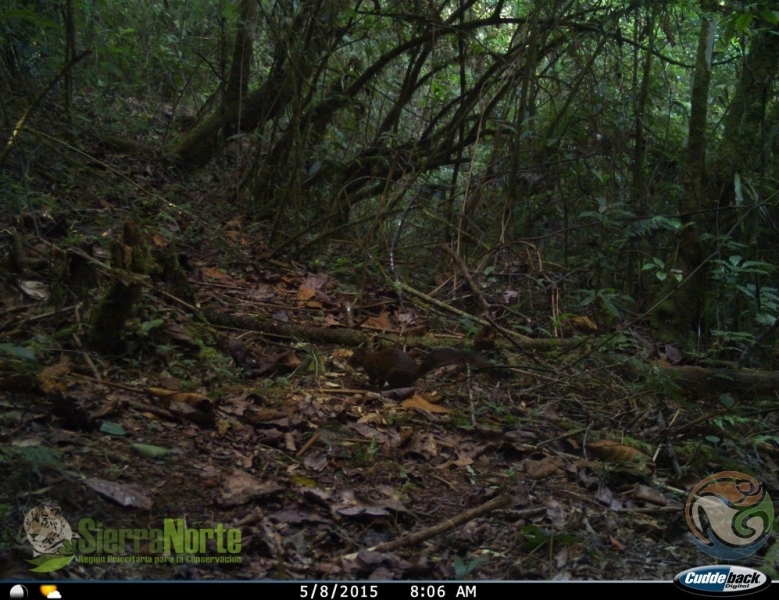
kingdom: Animalia
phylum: Chordata
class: Mammalia
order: Rodentia
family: Sciuridae
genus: Sciurus
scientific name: Sciurus deppei
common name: Deppe's squirrel
